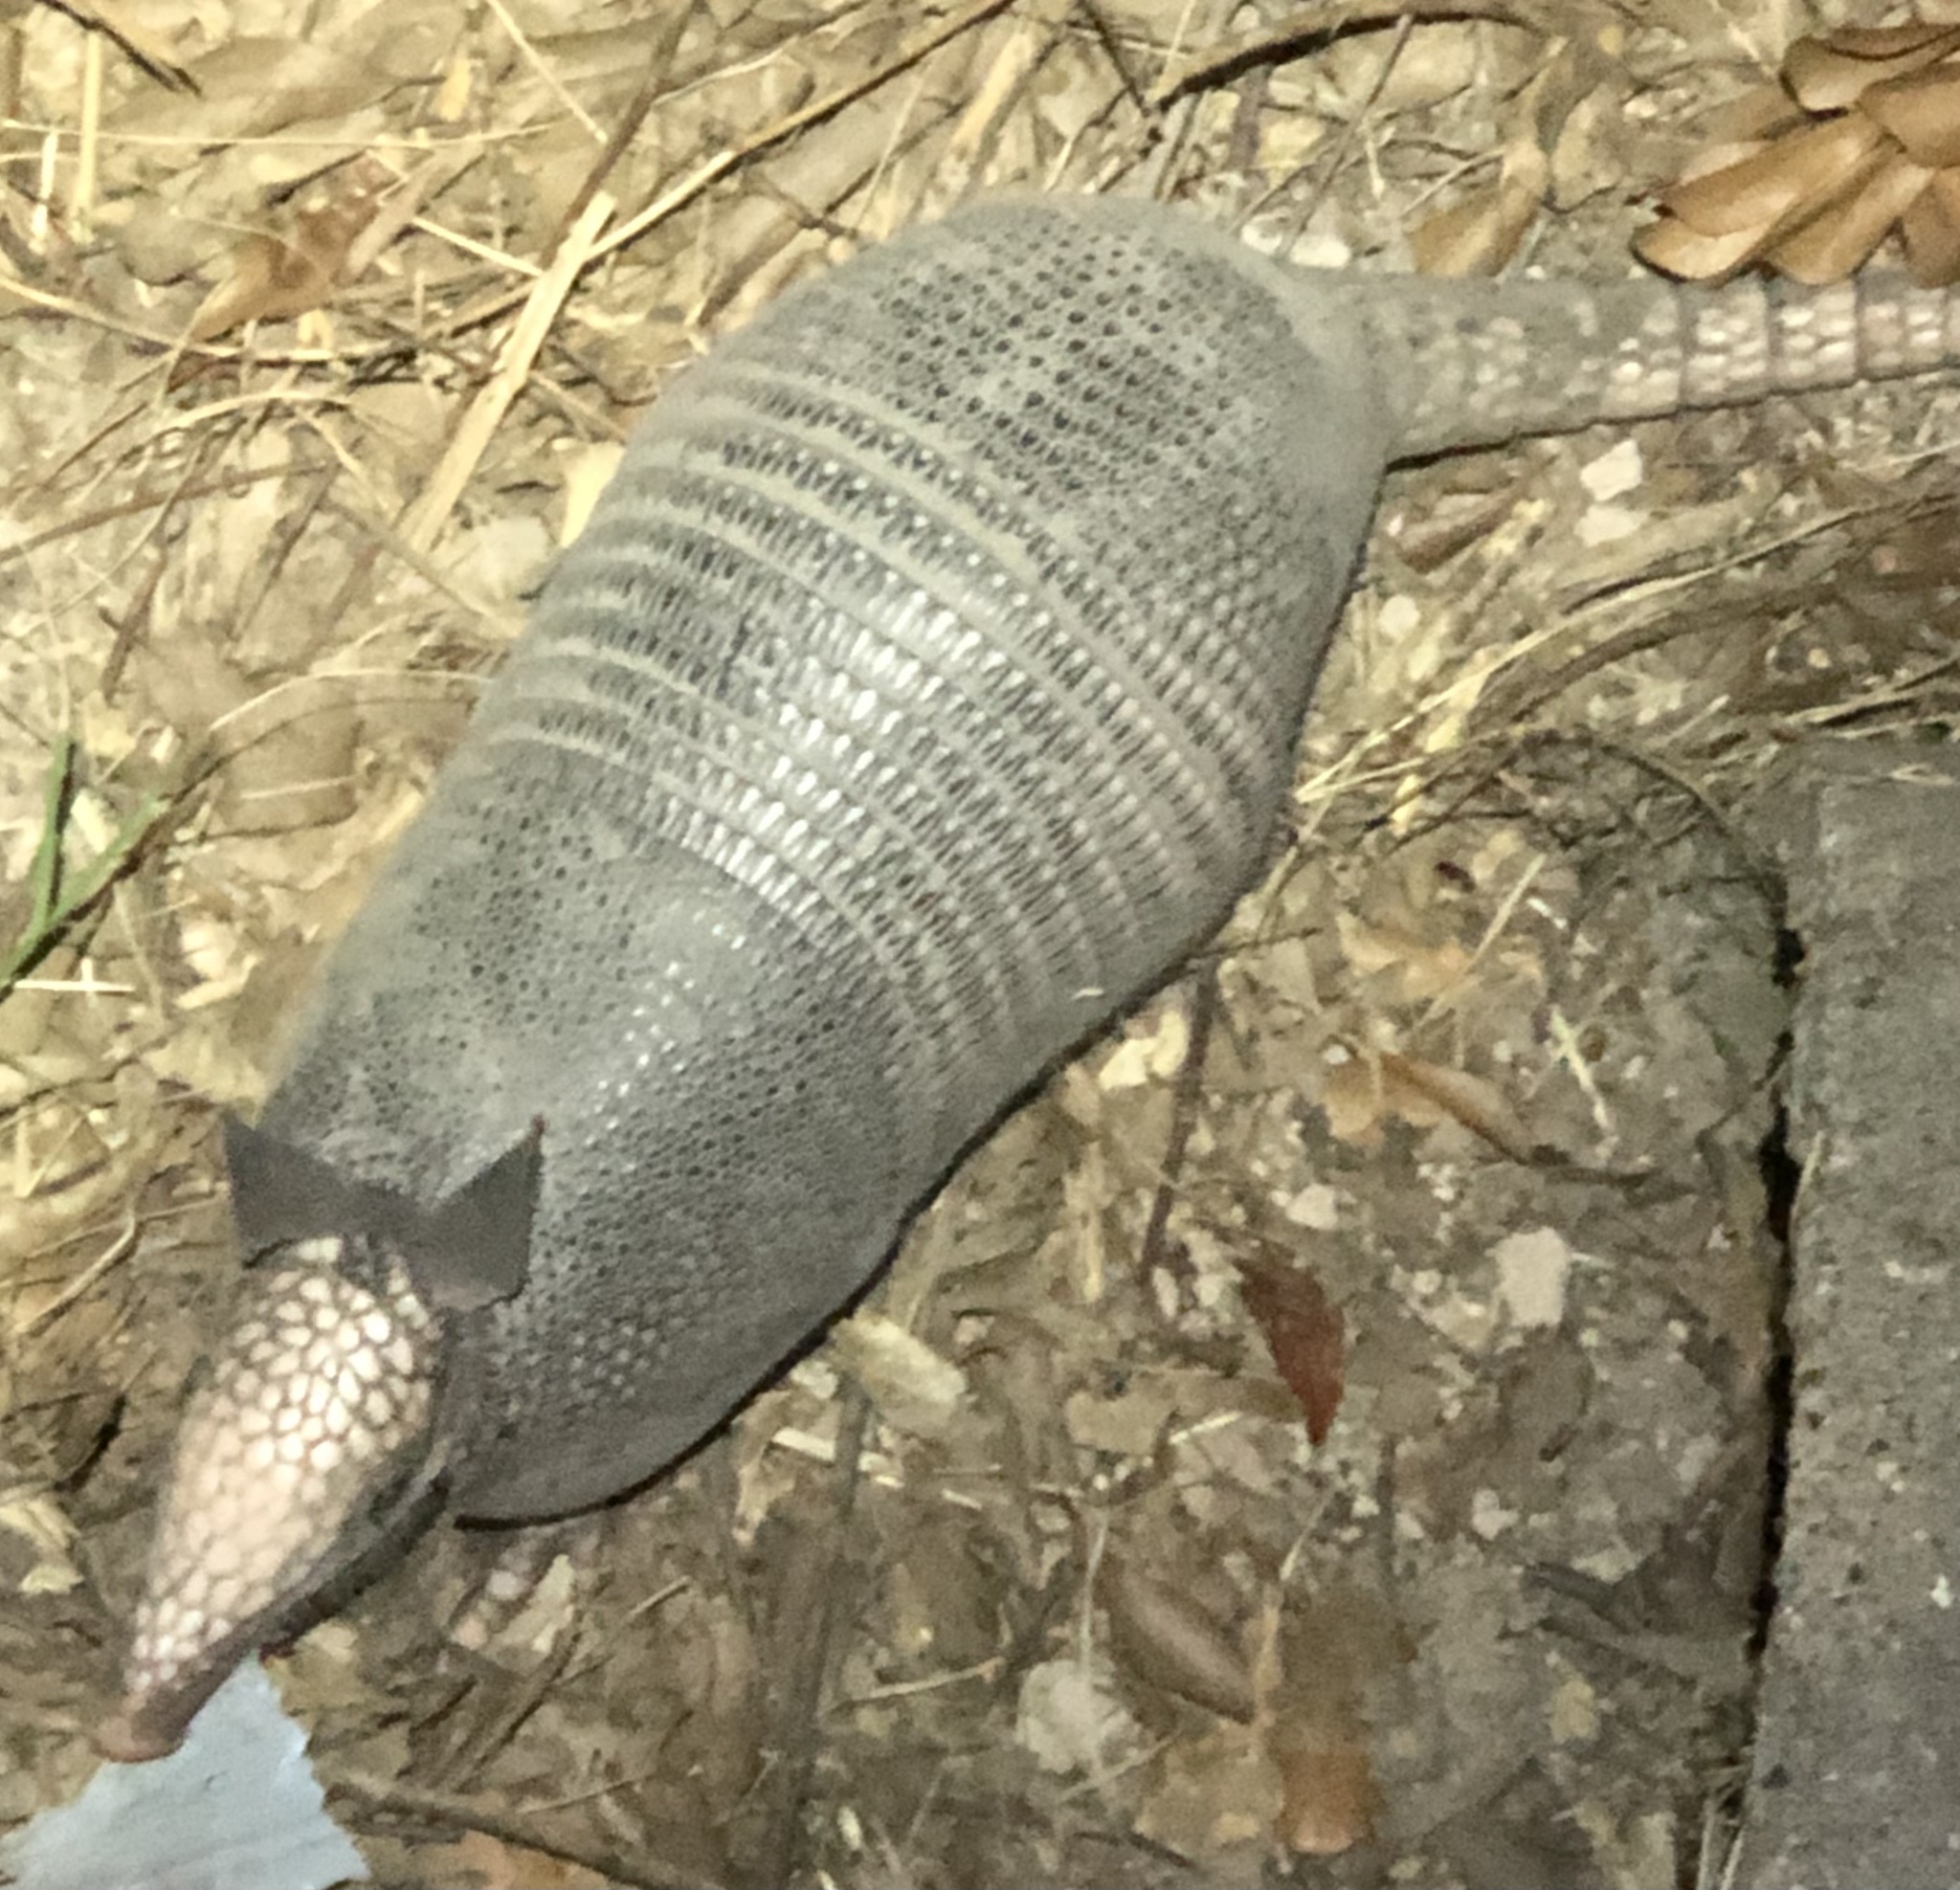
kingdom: Animalia
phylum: Chordata
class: Mammalia
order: Cingulata
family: Dasypodidae
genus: Dasypus
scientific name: Dasypus novemcinctus
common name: Nine-banded armadillo
